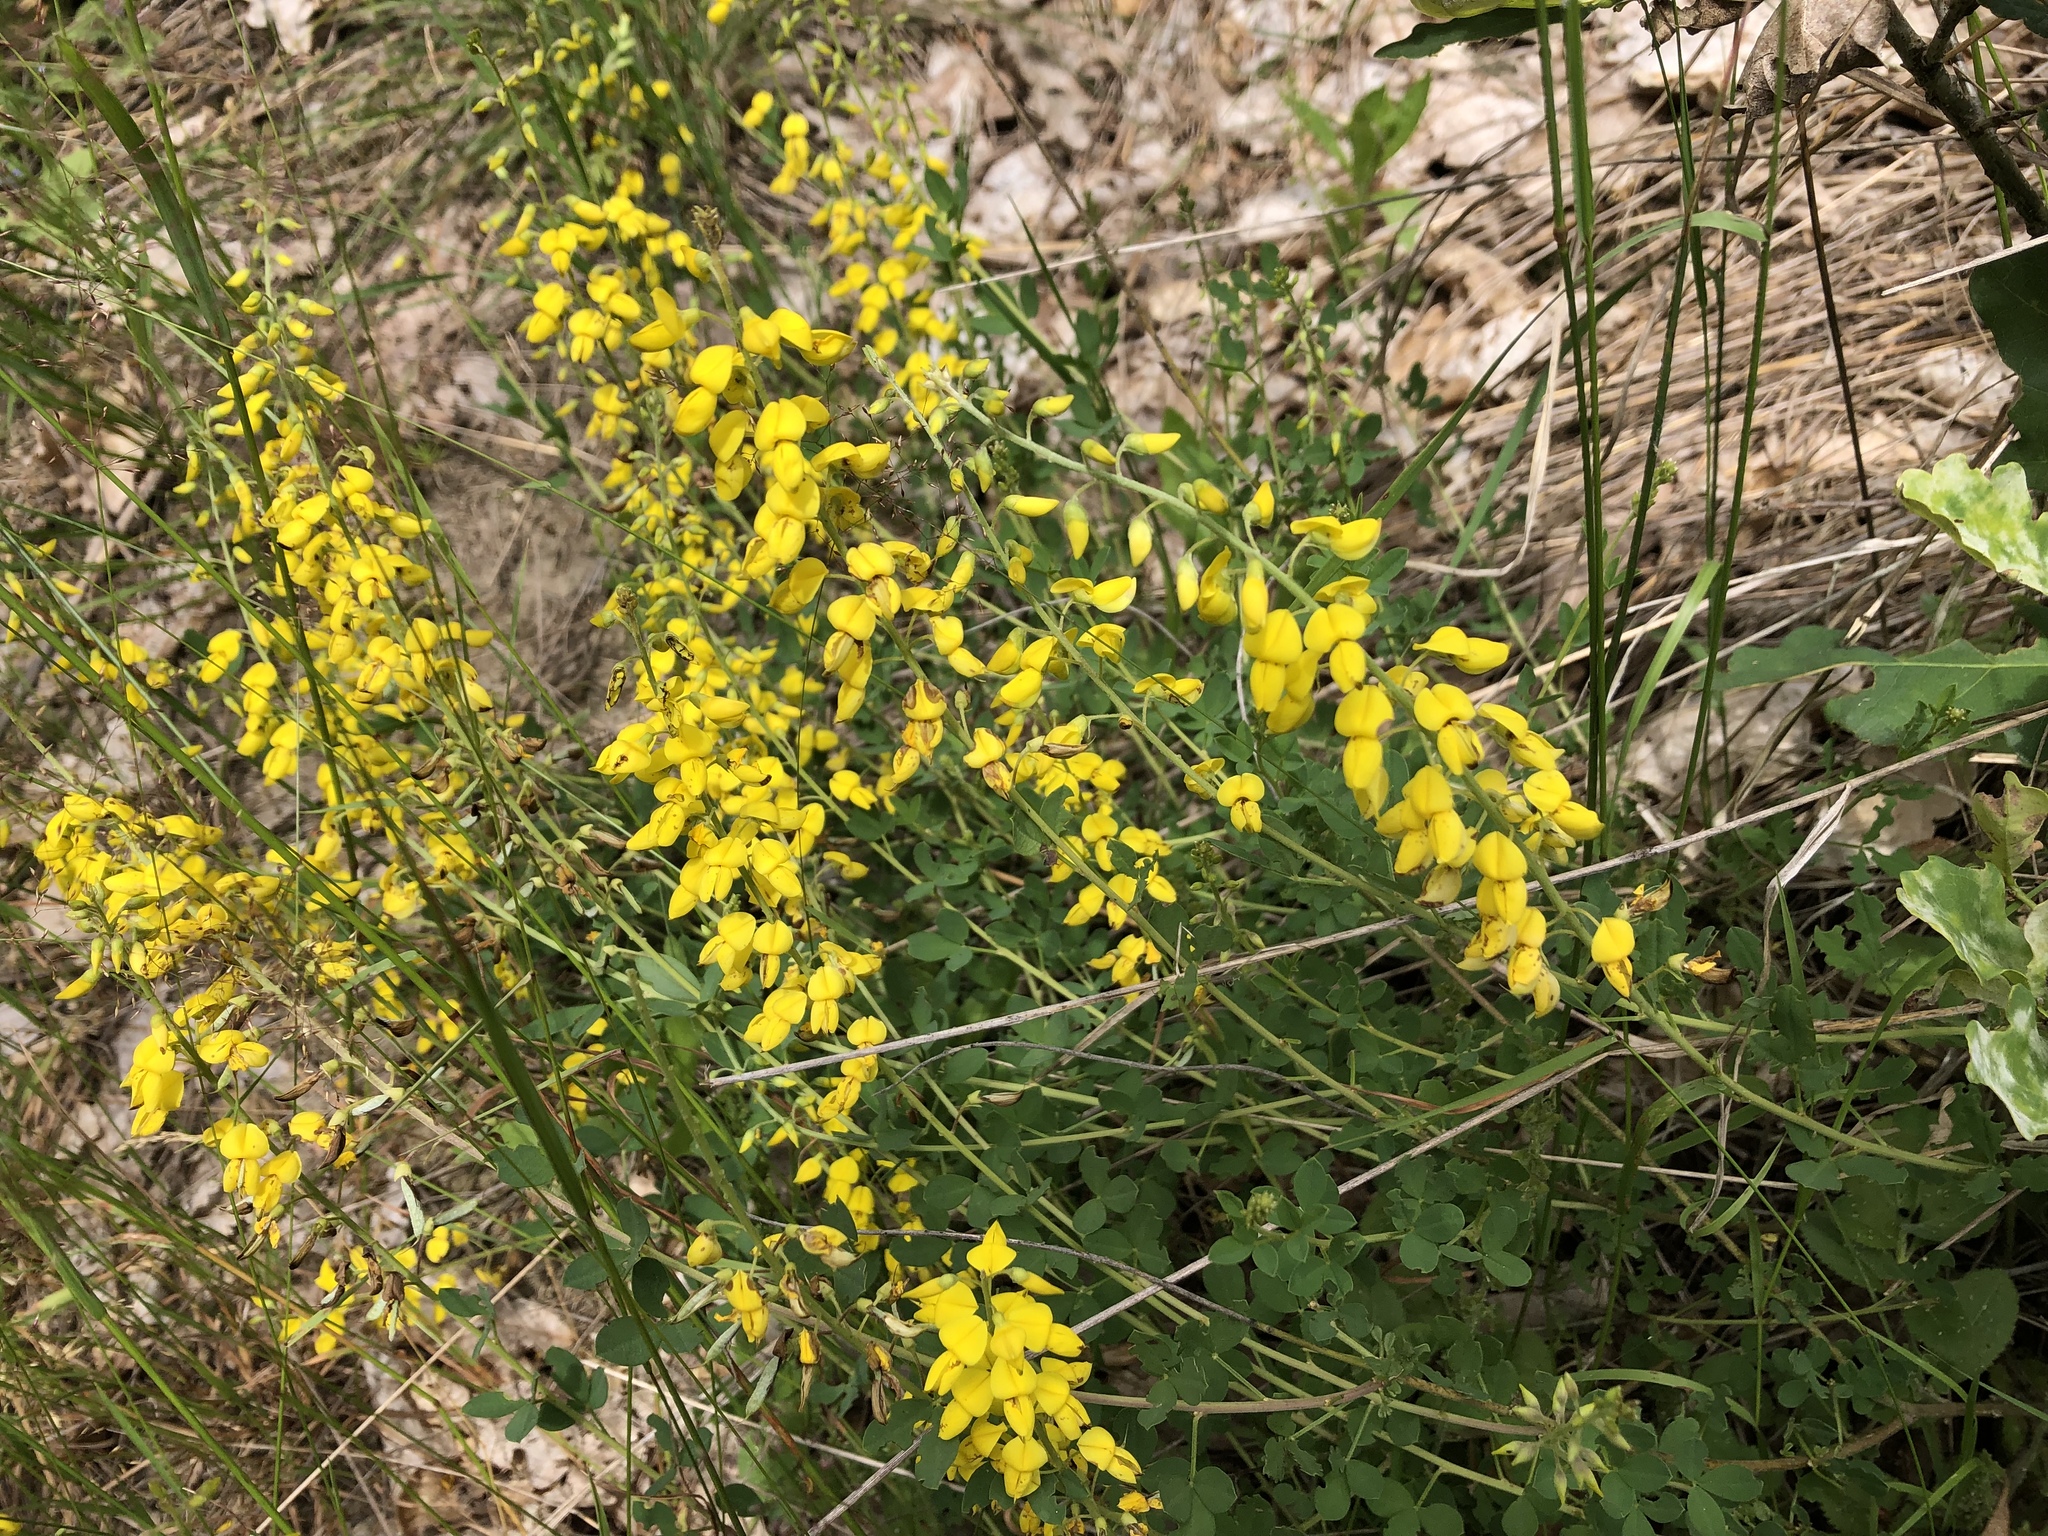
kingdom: Plantae
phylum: Tracheophyta
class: Magnoliopsida
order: Fabales
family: Fabaceae
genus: Cytisus
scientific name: Cytisus nigricans
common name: Black broom
